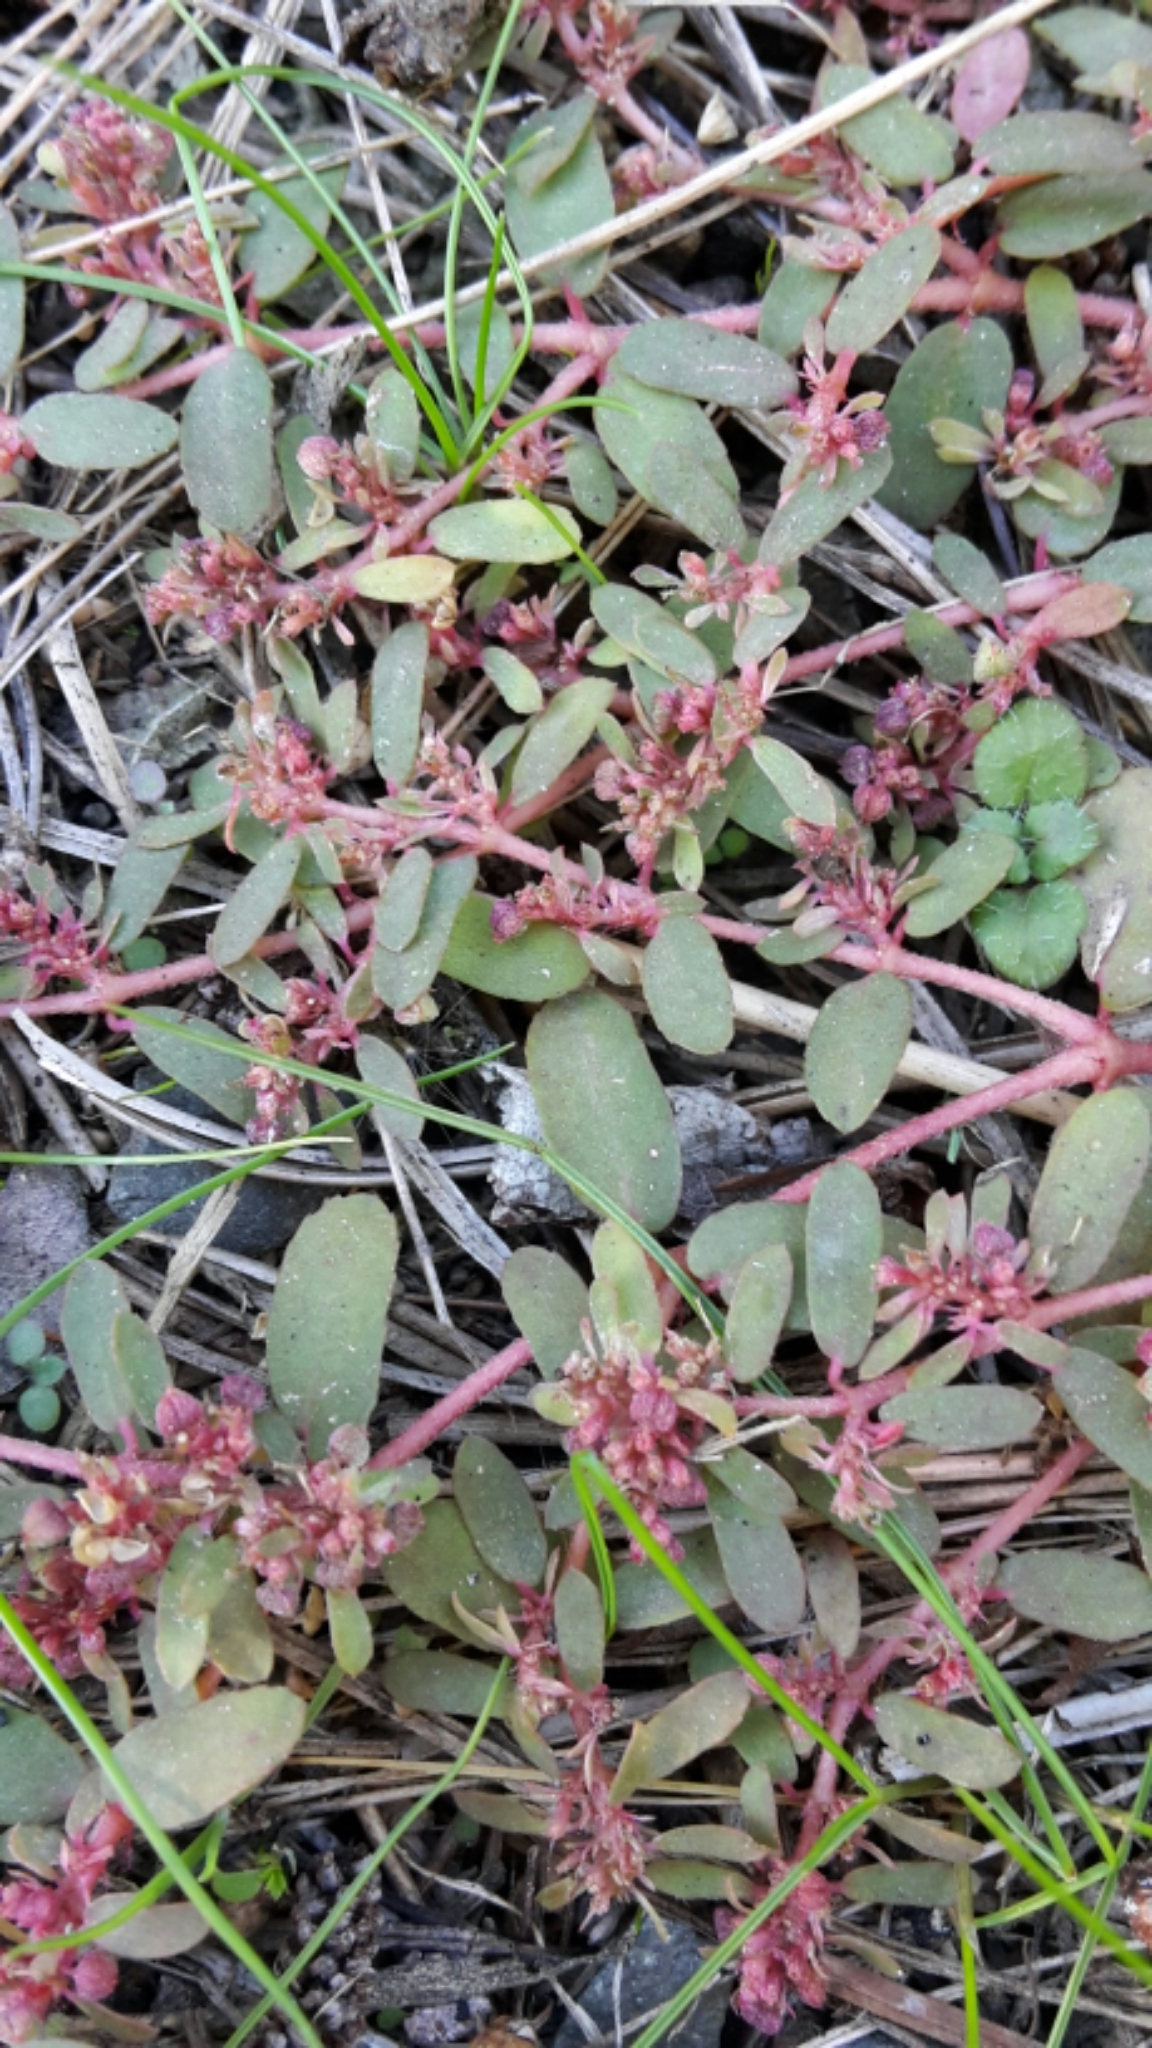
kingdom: Plantae
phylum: Tracheophyta
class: Magnoliopsida
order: Malpighiales
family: Euphorbiaceae
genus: Euphorbia
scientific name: Euphorbia maculata
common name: Spotted spurge
